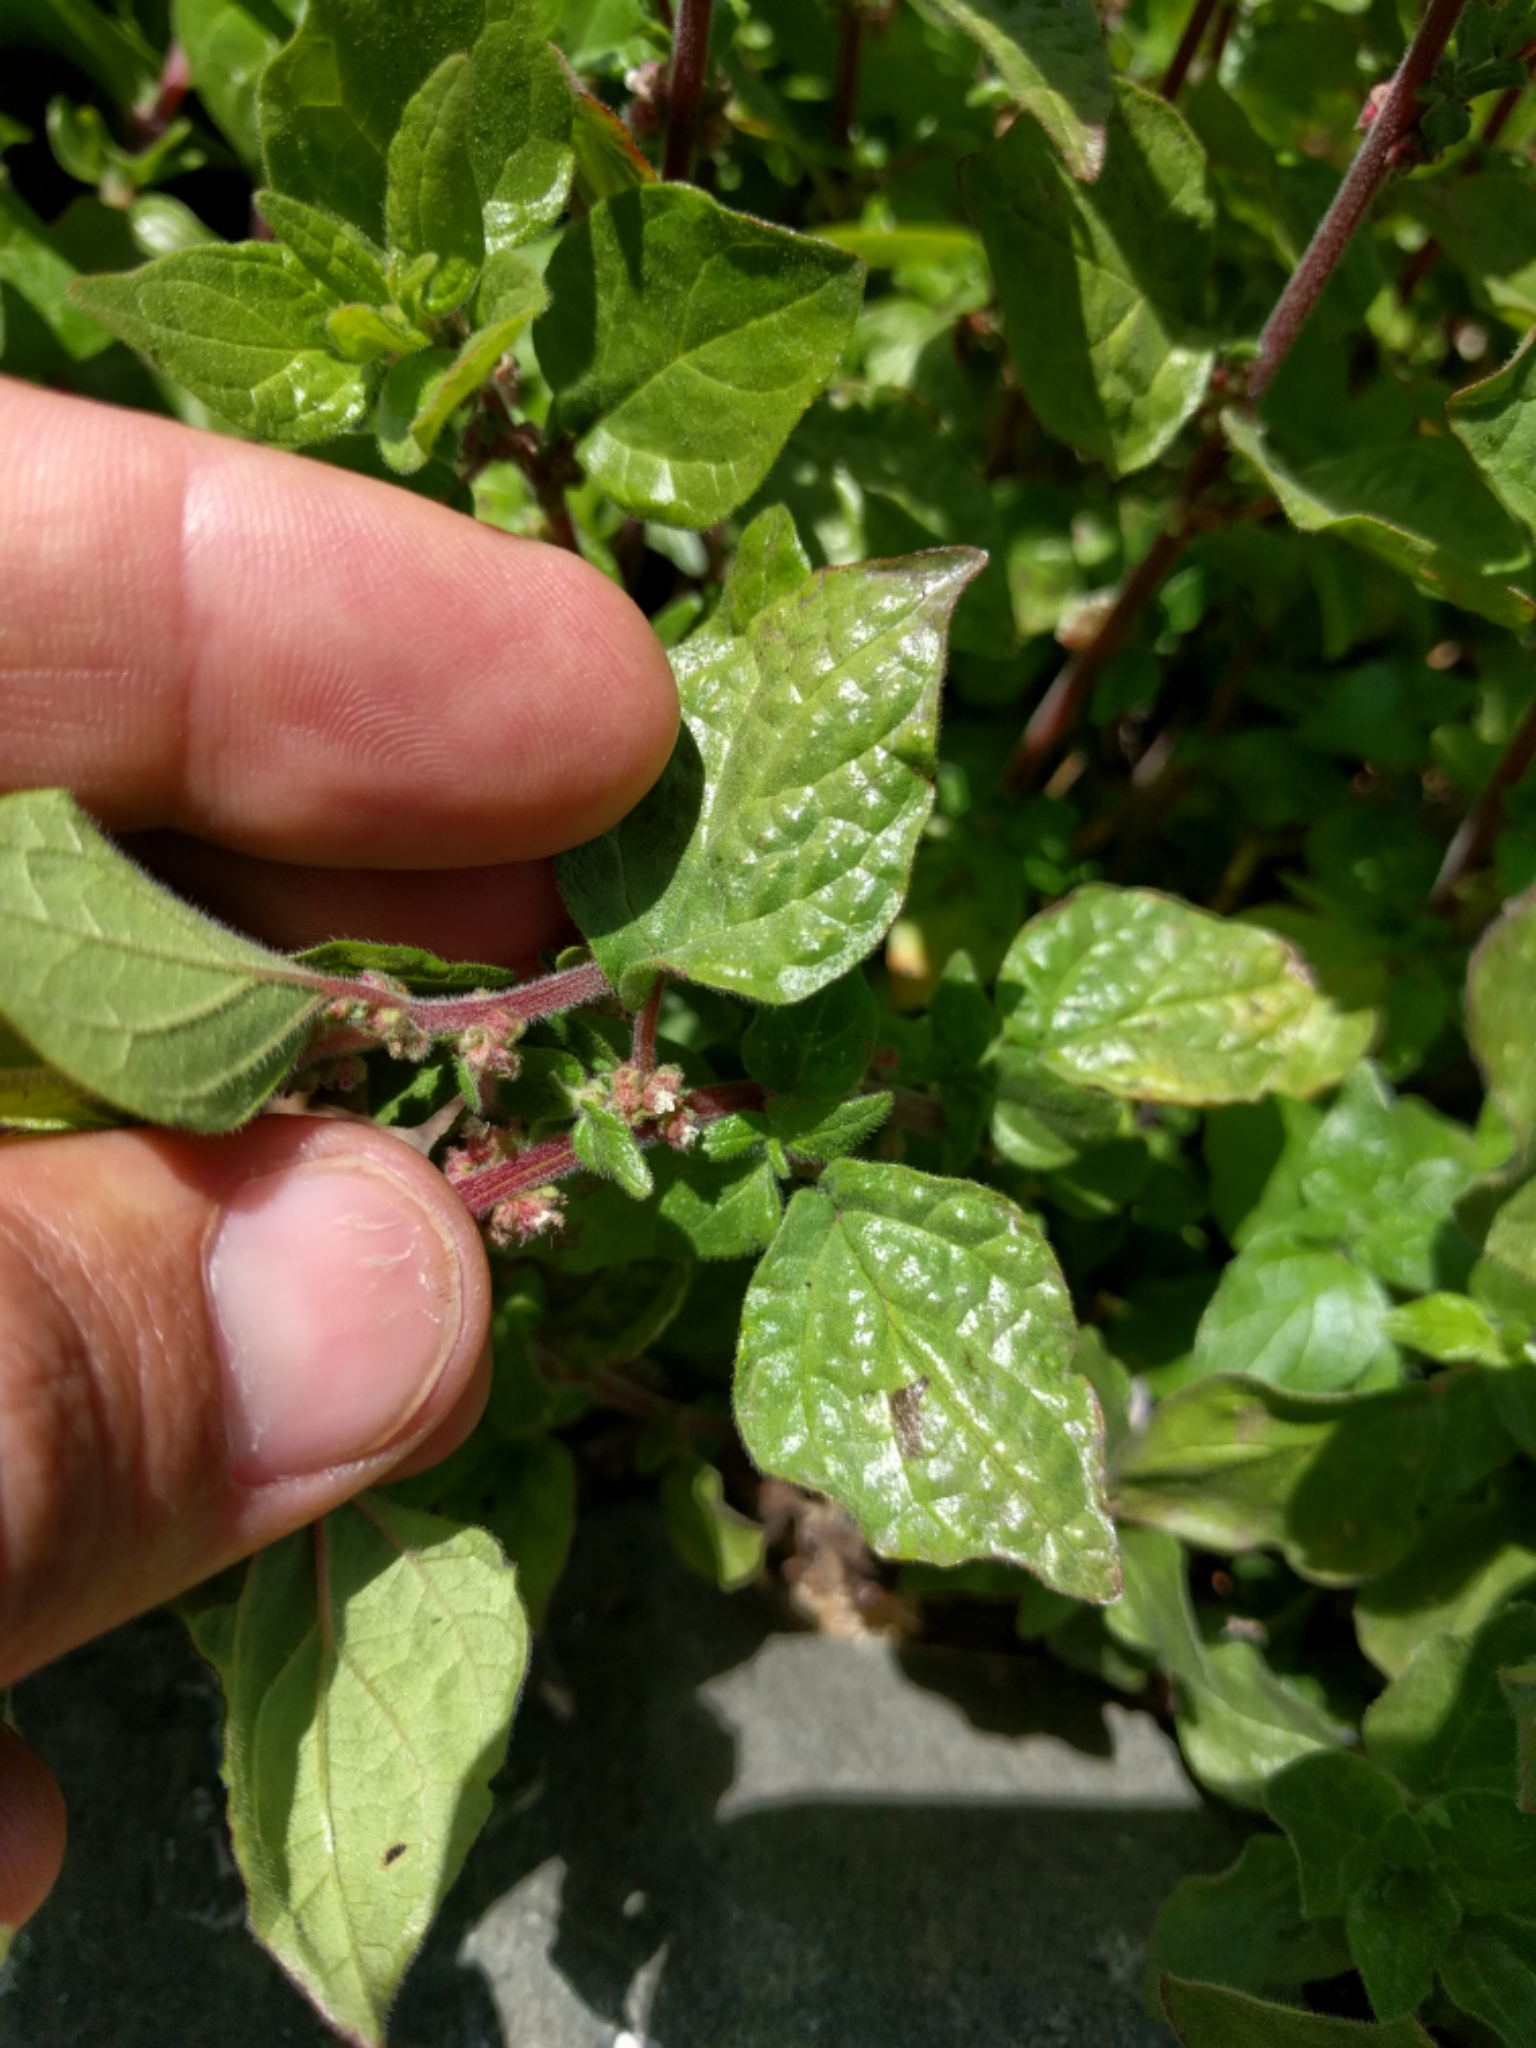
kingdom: Plantae
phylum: Tracheophyta
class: Magnoliopsida
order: Rosales
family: Urticaceae
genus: Parietaria
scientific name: Parietaria judaica
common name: Pellitory-of-the-wall
